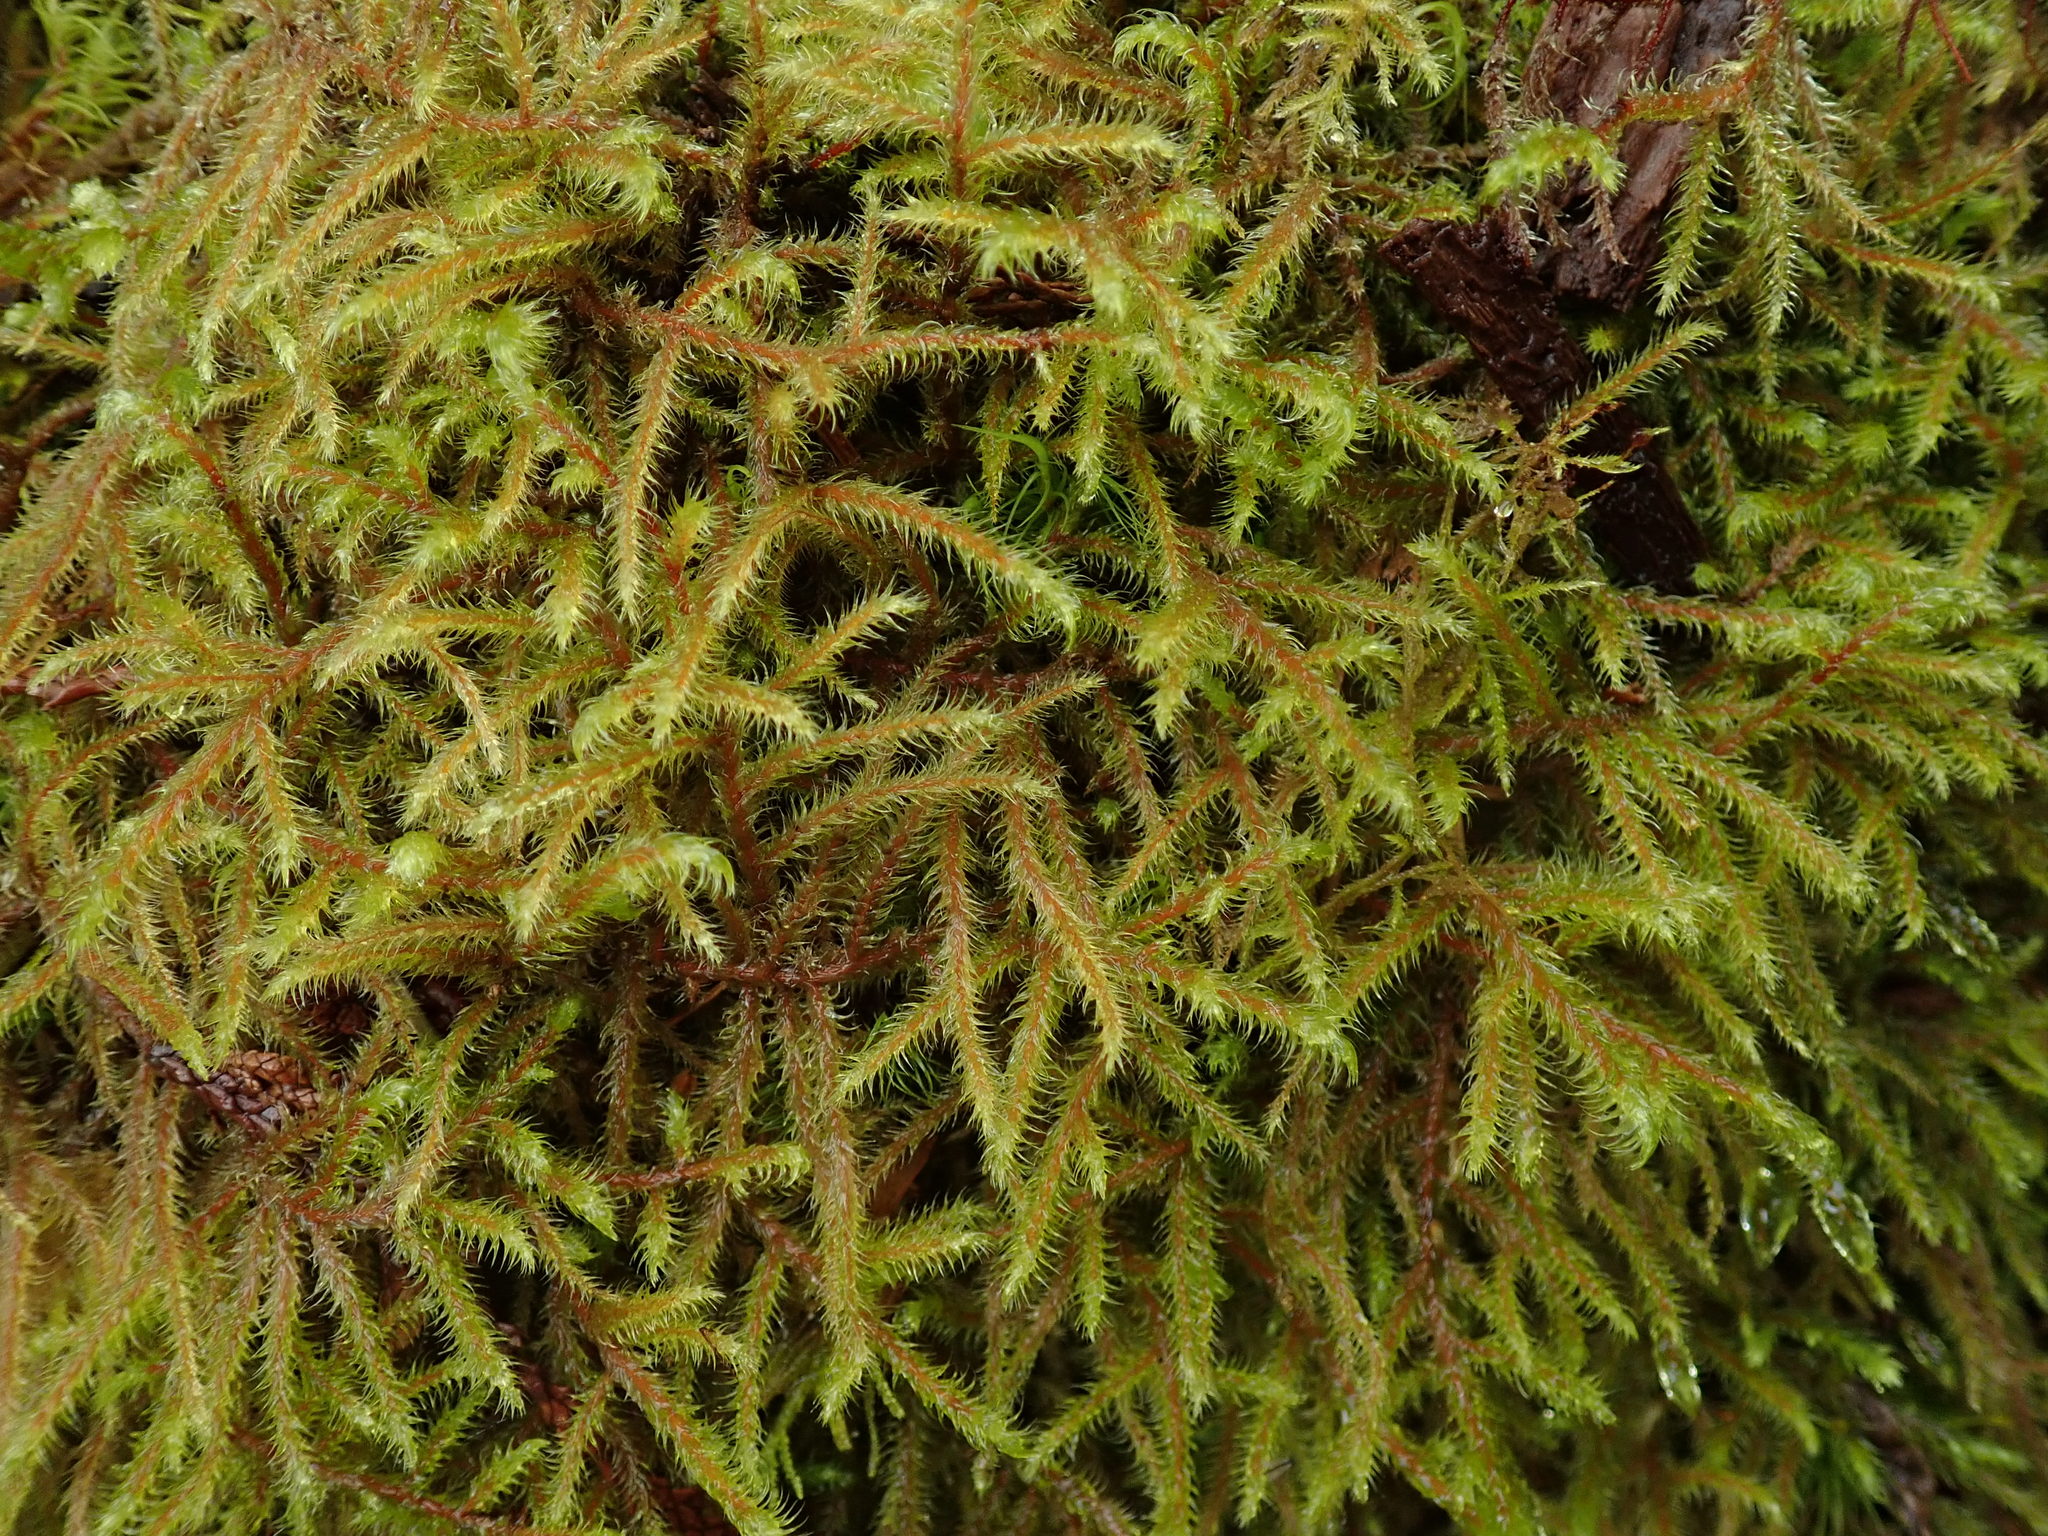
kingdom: Plantae
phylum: Bryophyta
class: Bryopsida
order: Hypnales
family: Hylocomiaceae
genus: Rhytidiadelphus
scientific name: Rhytidiadelphus loreus
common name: Lanky moss
